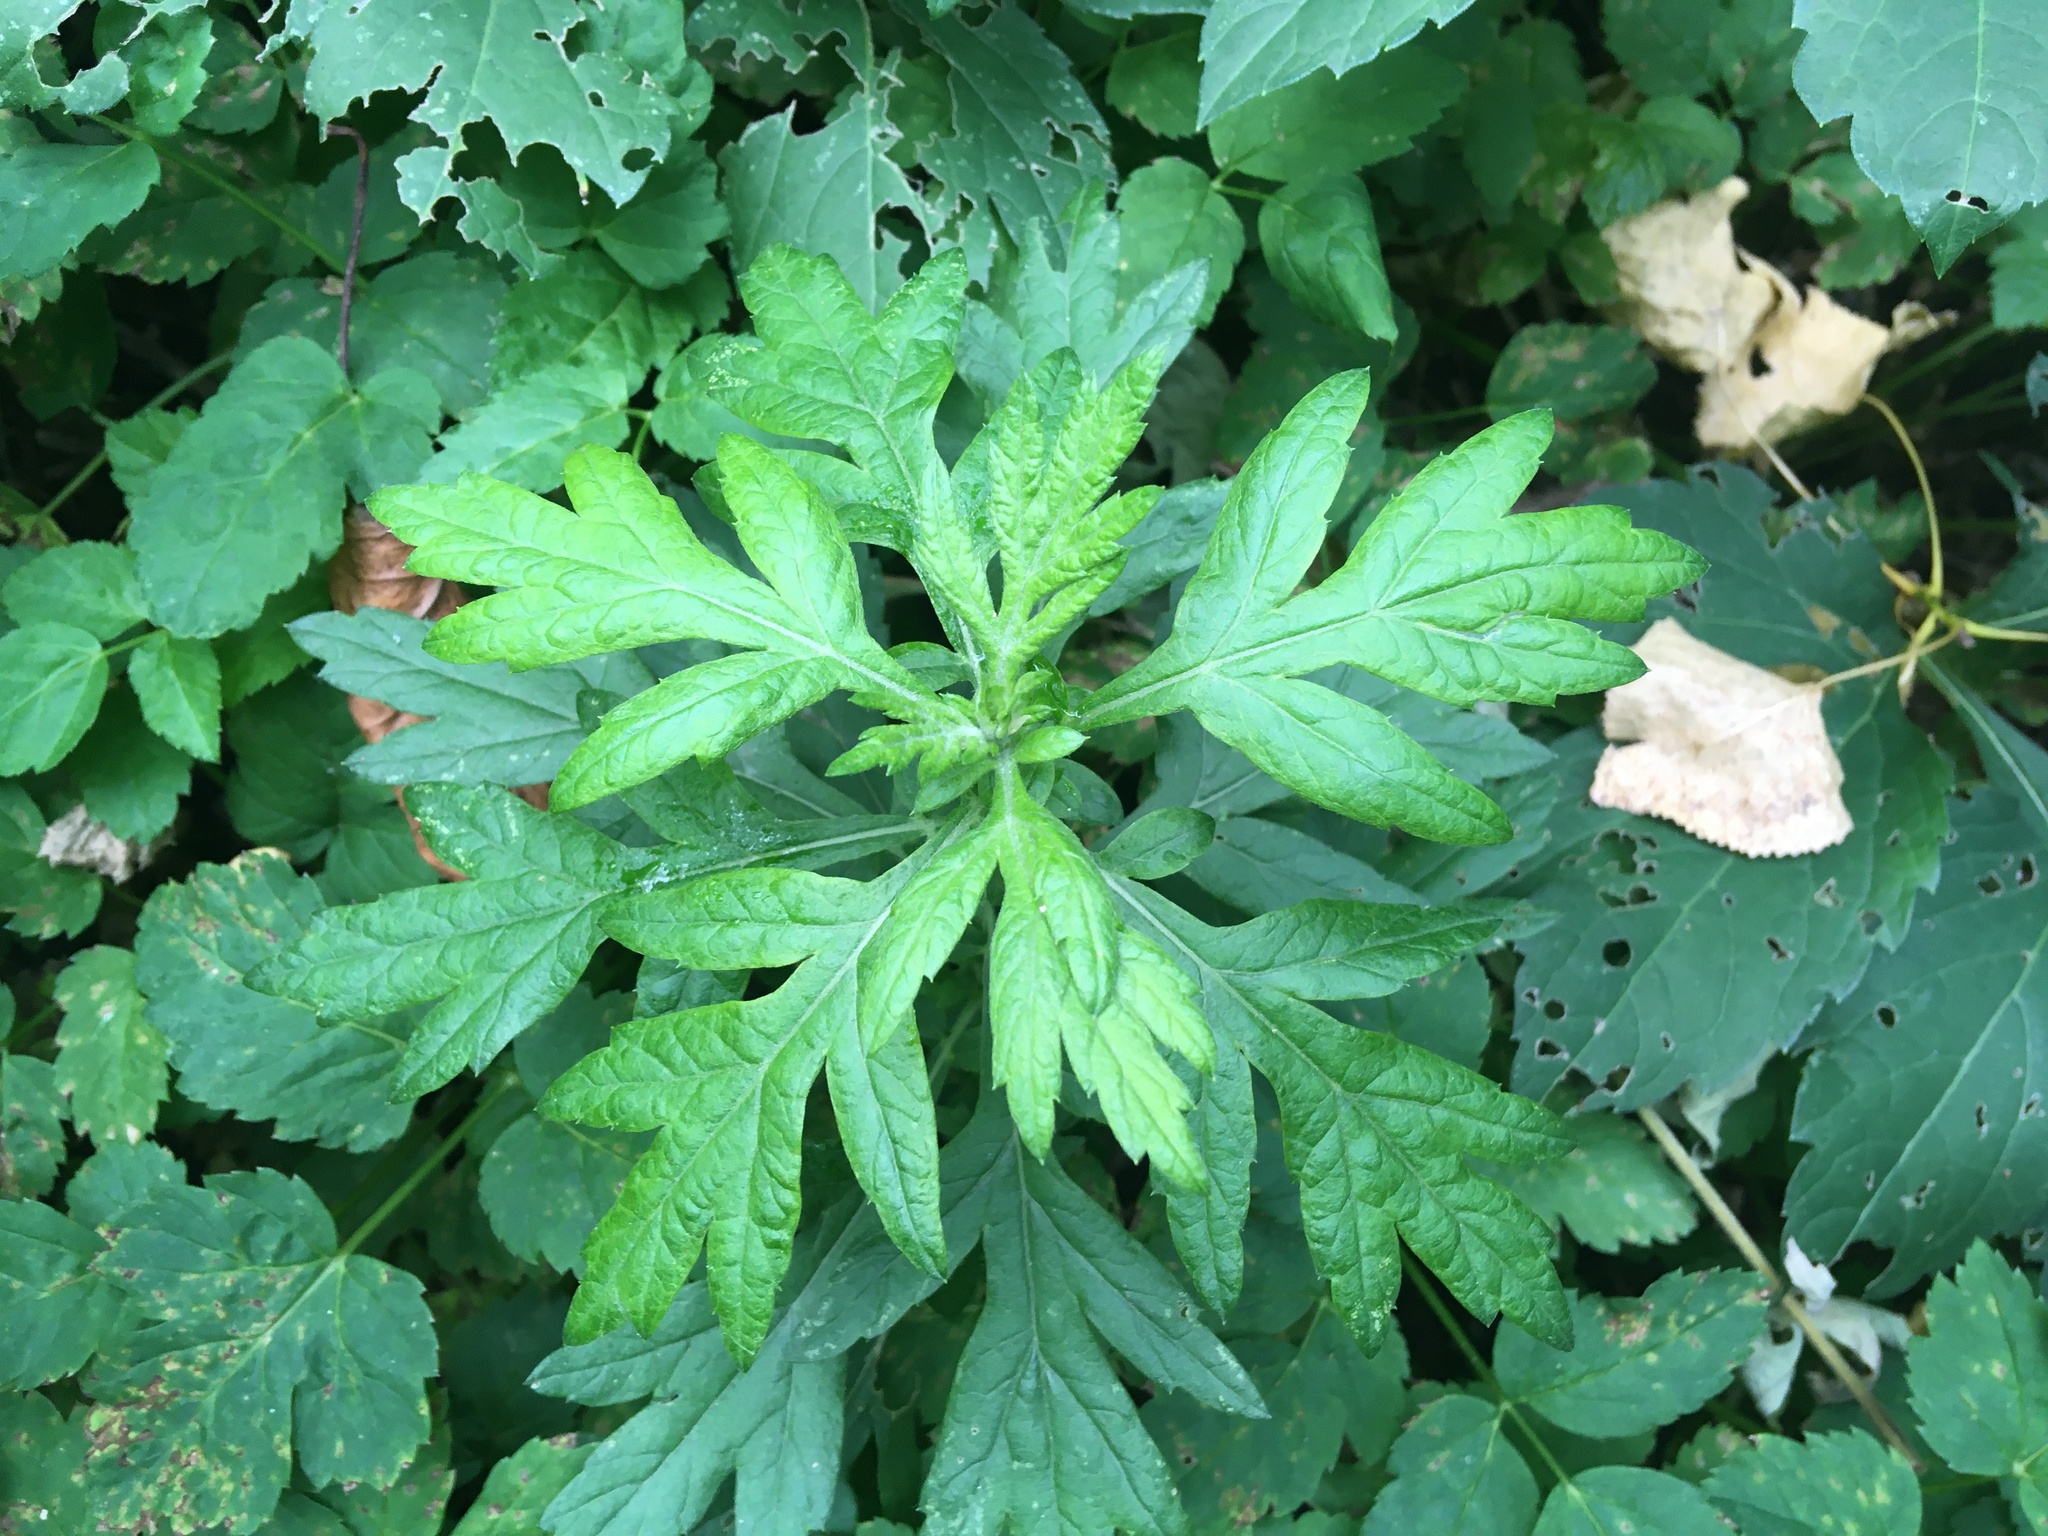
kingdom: Plantae
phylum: Tracheophyta
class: Magnoliopsida
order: Asterales
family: Asteraceae
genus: Artemisia
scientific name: Artemisia vulgaris
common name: Mugwort
